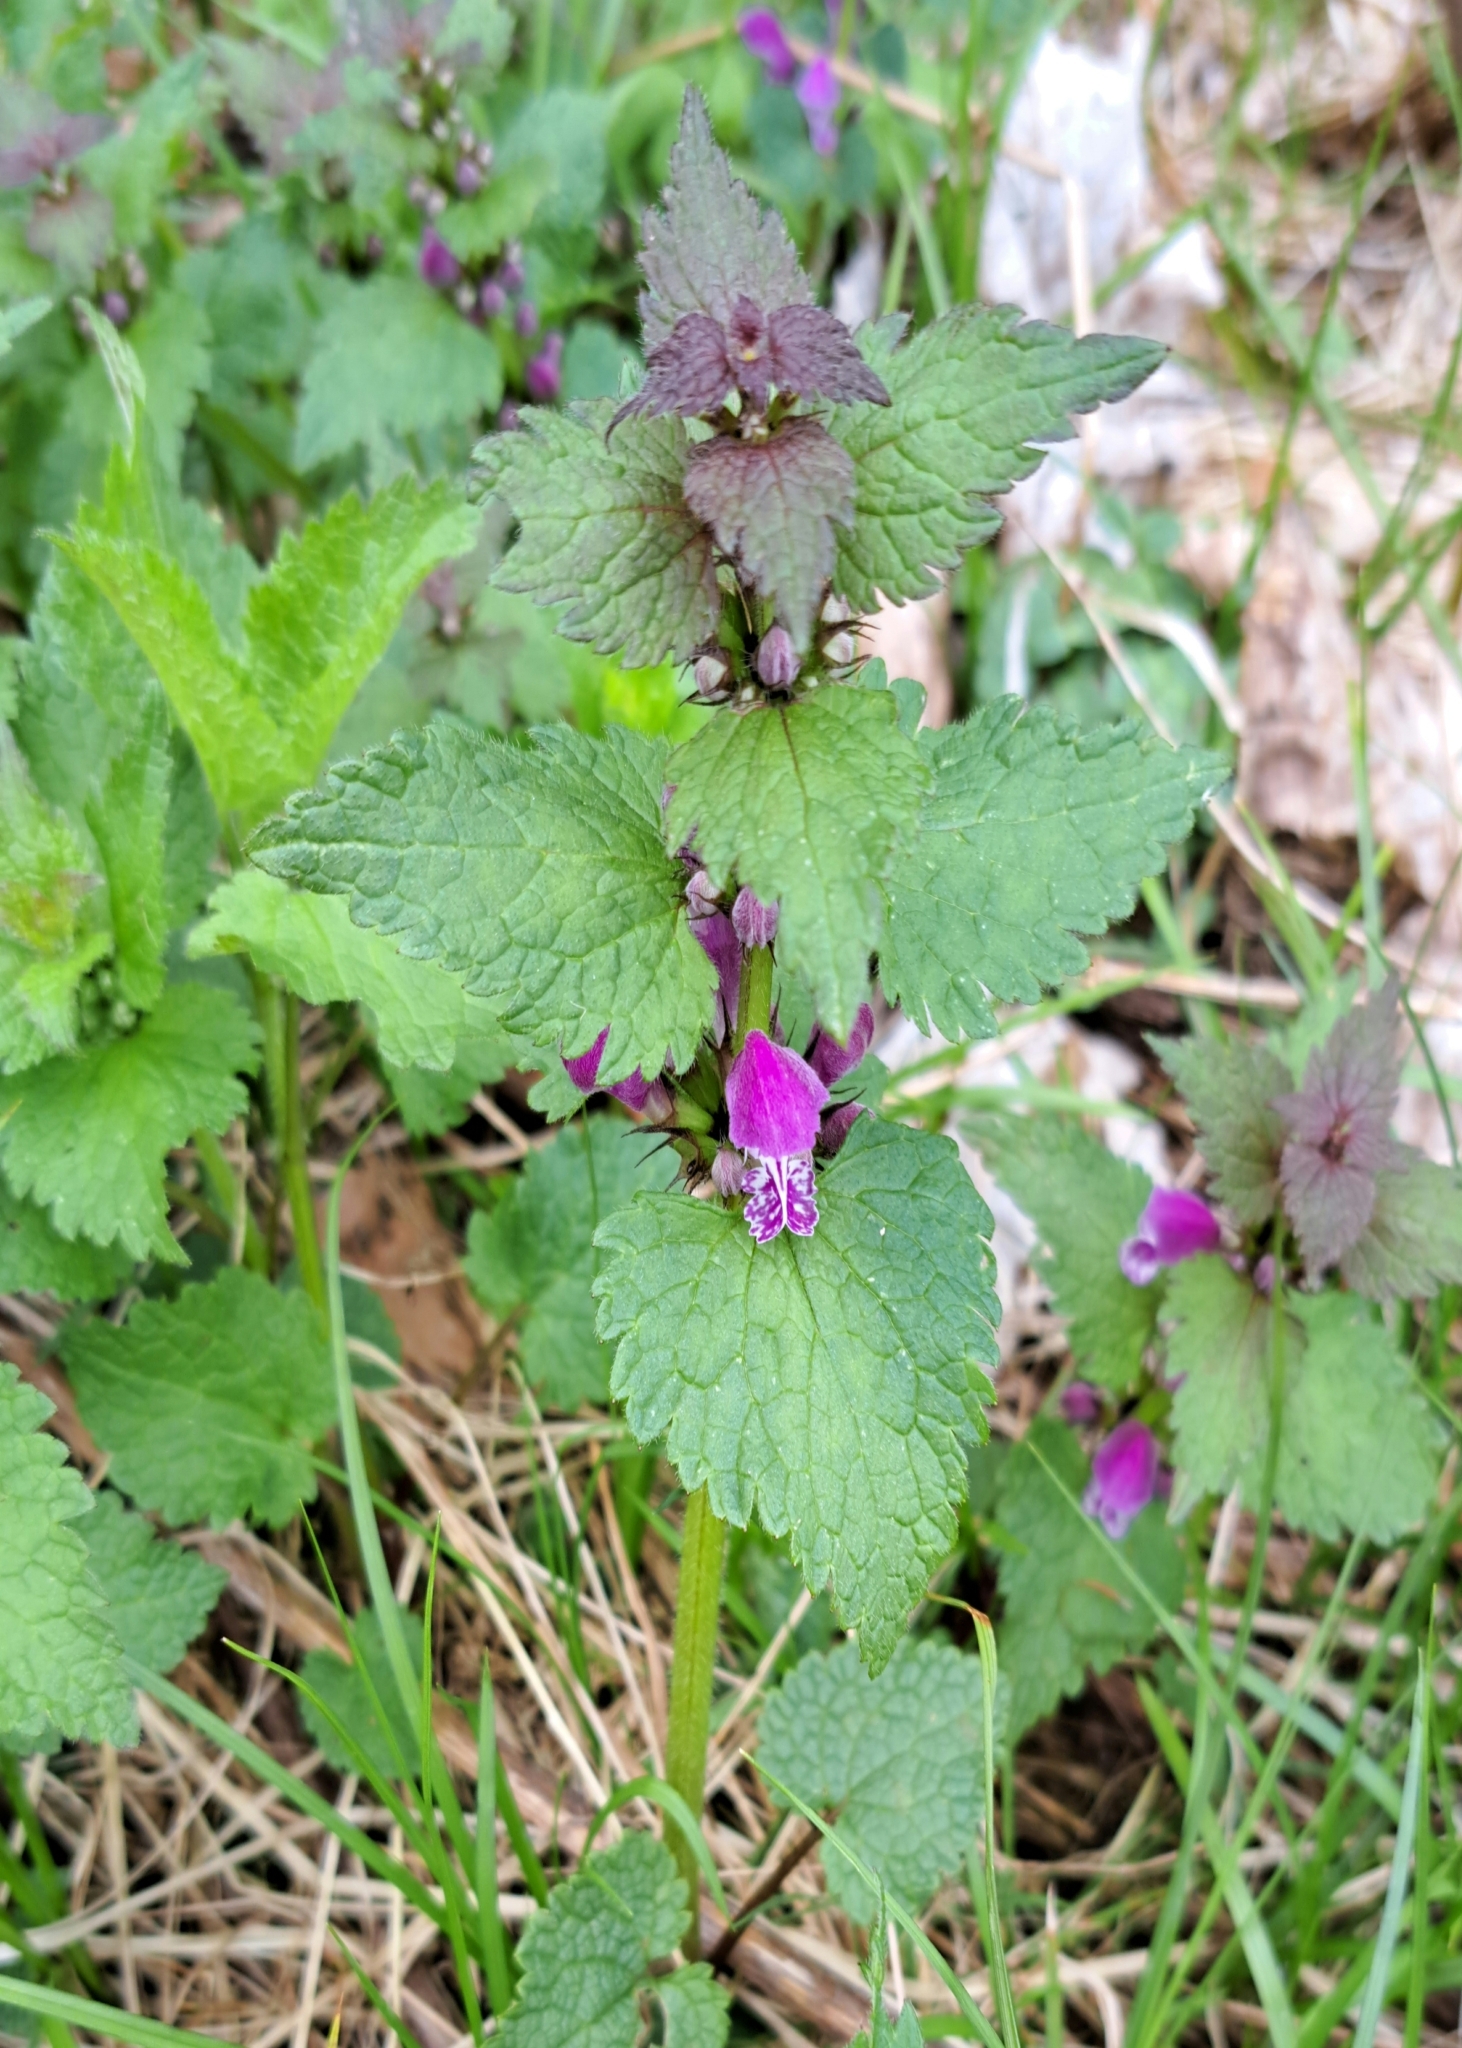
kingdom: Plantae
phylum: Tracheophyta
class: Magnoliopsida
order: Lamiales
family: Lamiaceae
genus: Lamium
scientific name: Lamium maculatum
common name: Spotted dead-nettle
